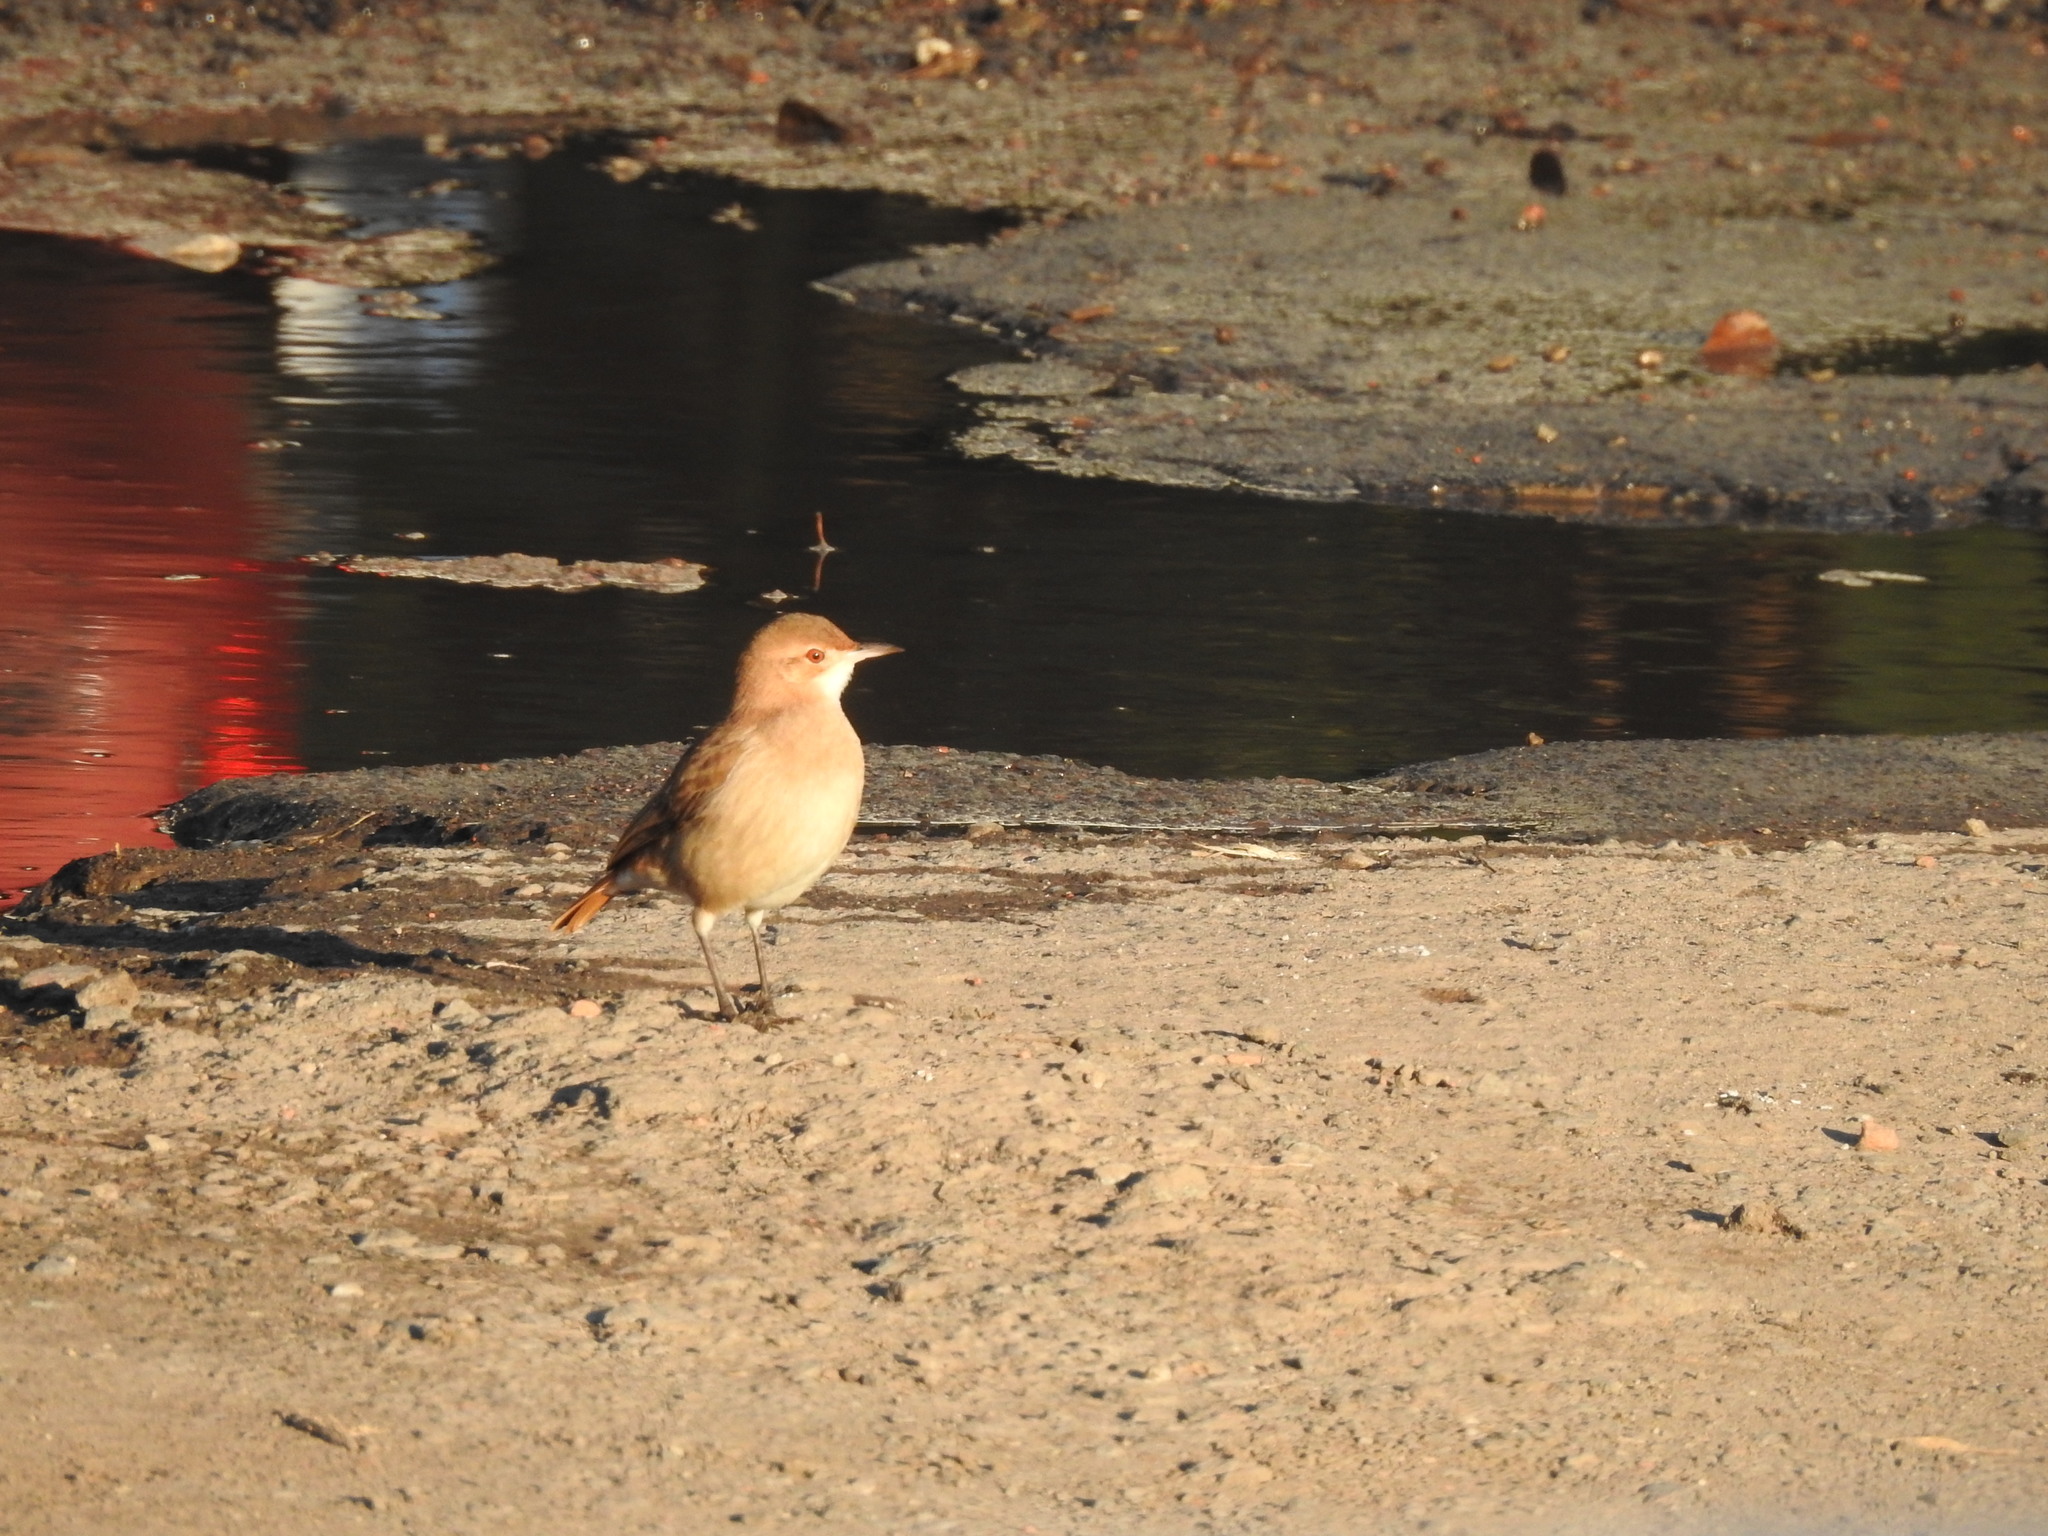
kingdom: Animalia
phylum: Chordata
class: Aves
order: Passeriformes
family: Furnariidae
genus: Furnarius
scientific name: Furnarius rufus
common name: Rufous hornero
